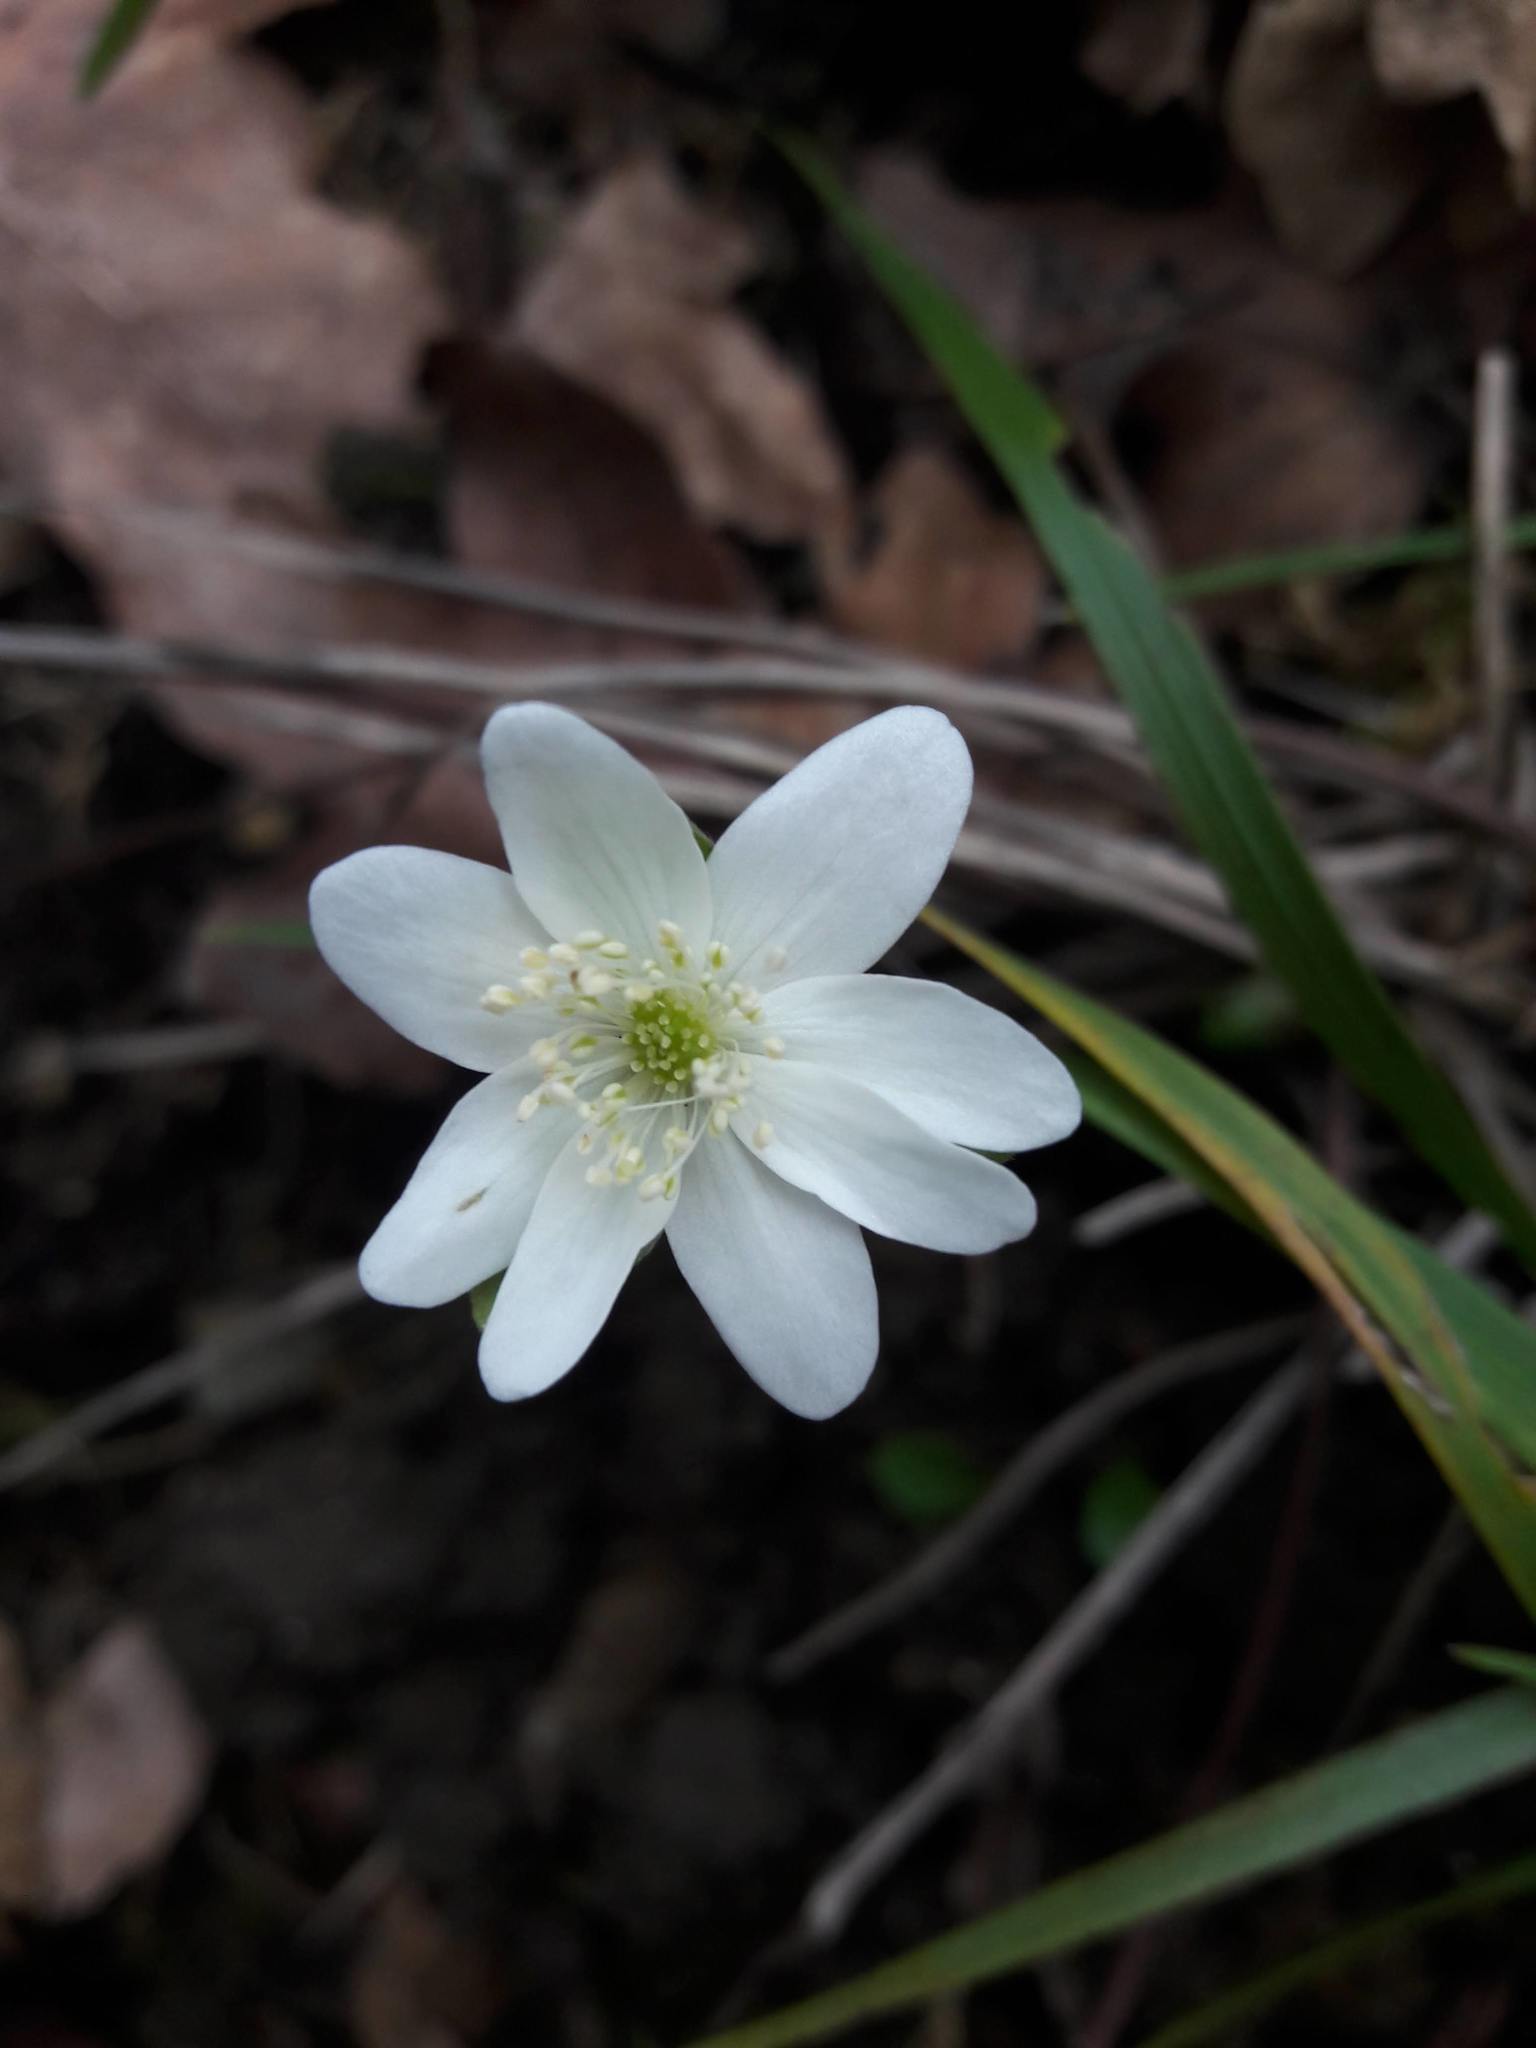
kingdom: Plantae
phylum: Tracheophyta
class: Magnoliopsida
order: Ranunculales
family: Ranunculaceae
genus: Hepatica
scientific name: Hepatica nobilis
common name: Liverleaf
